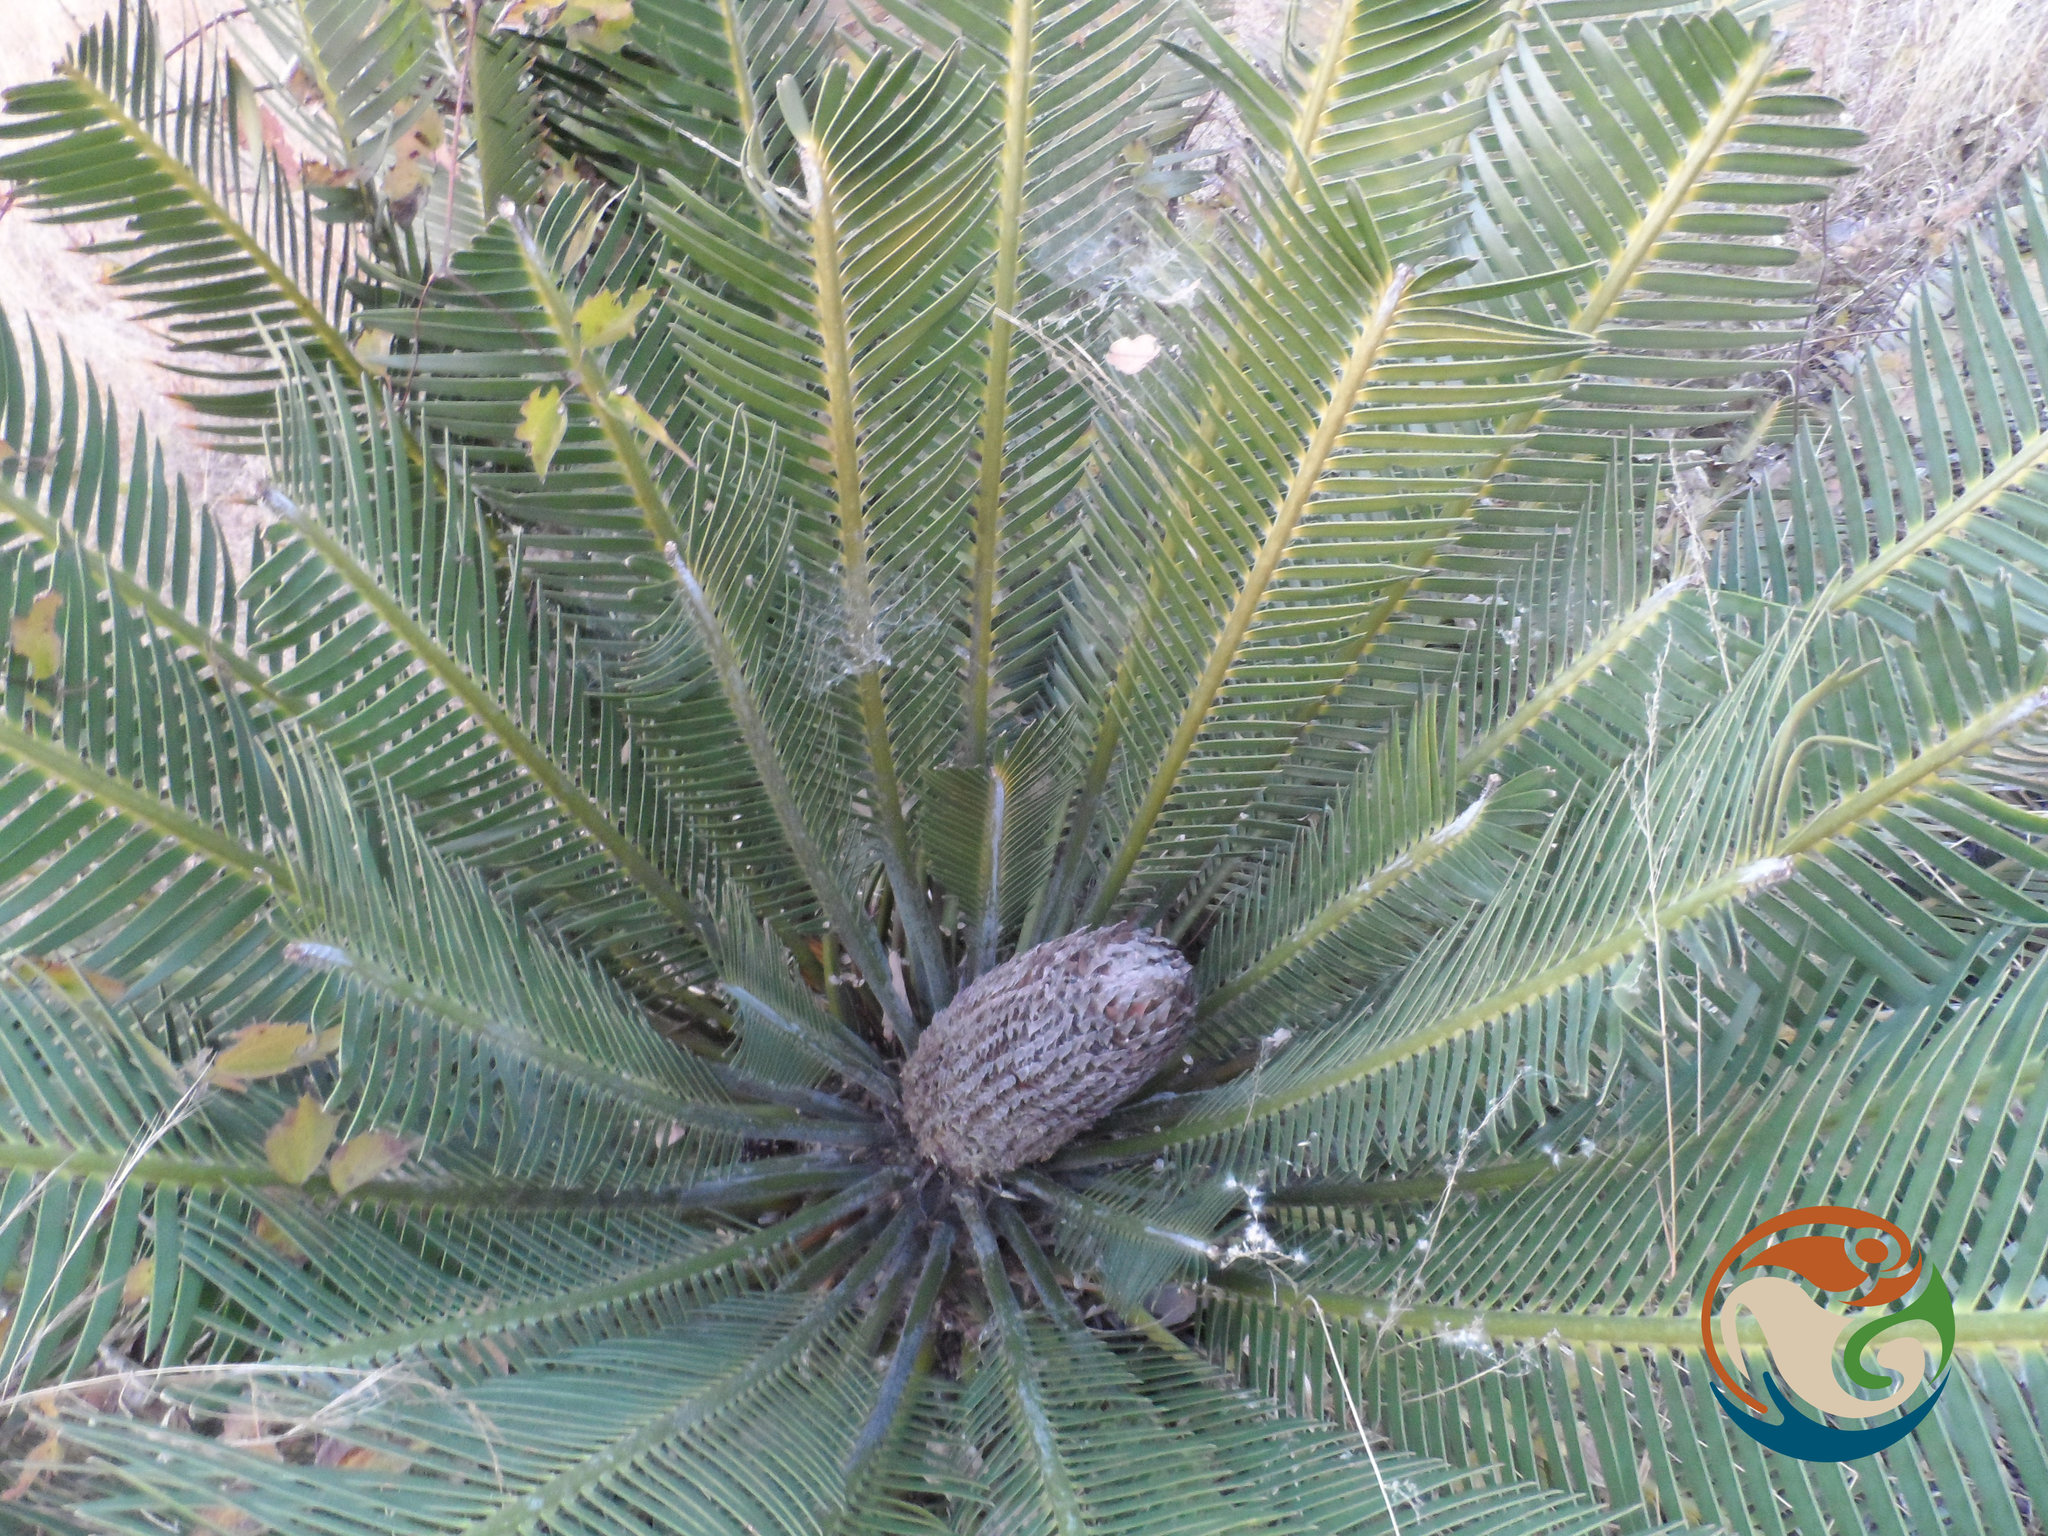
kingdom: Plantae
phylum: Tracheophyta
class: Cycadopsida
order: Cycadales
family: Zamiaceae
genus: Dioon
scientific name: Dioon planifolium
